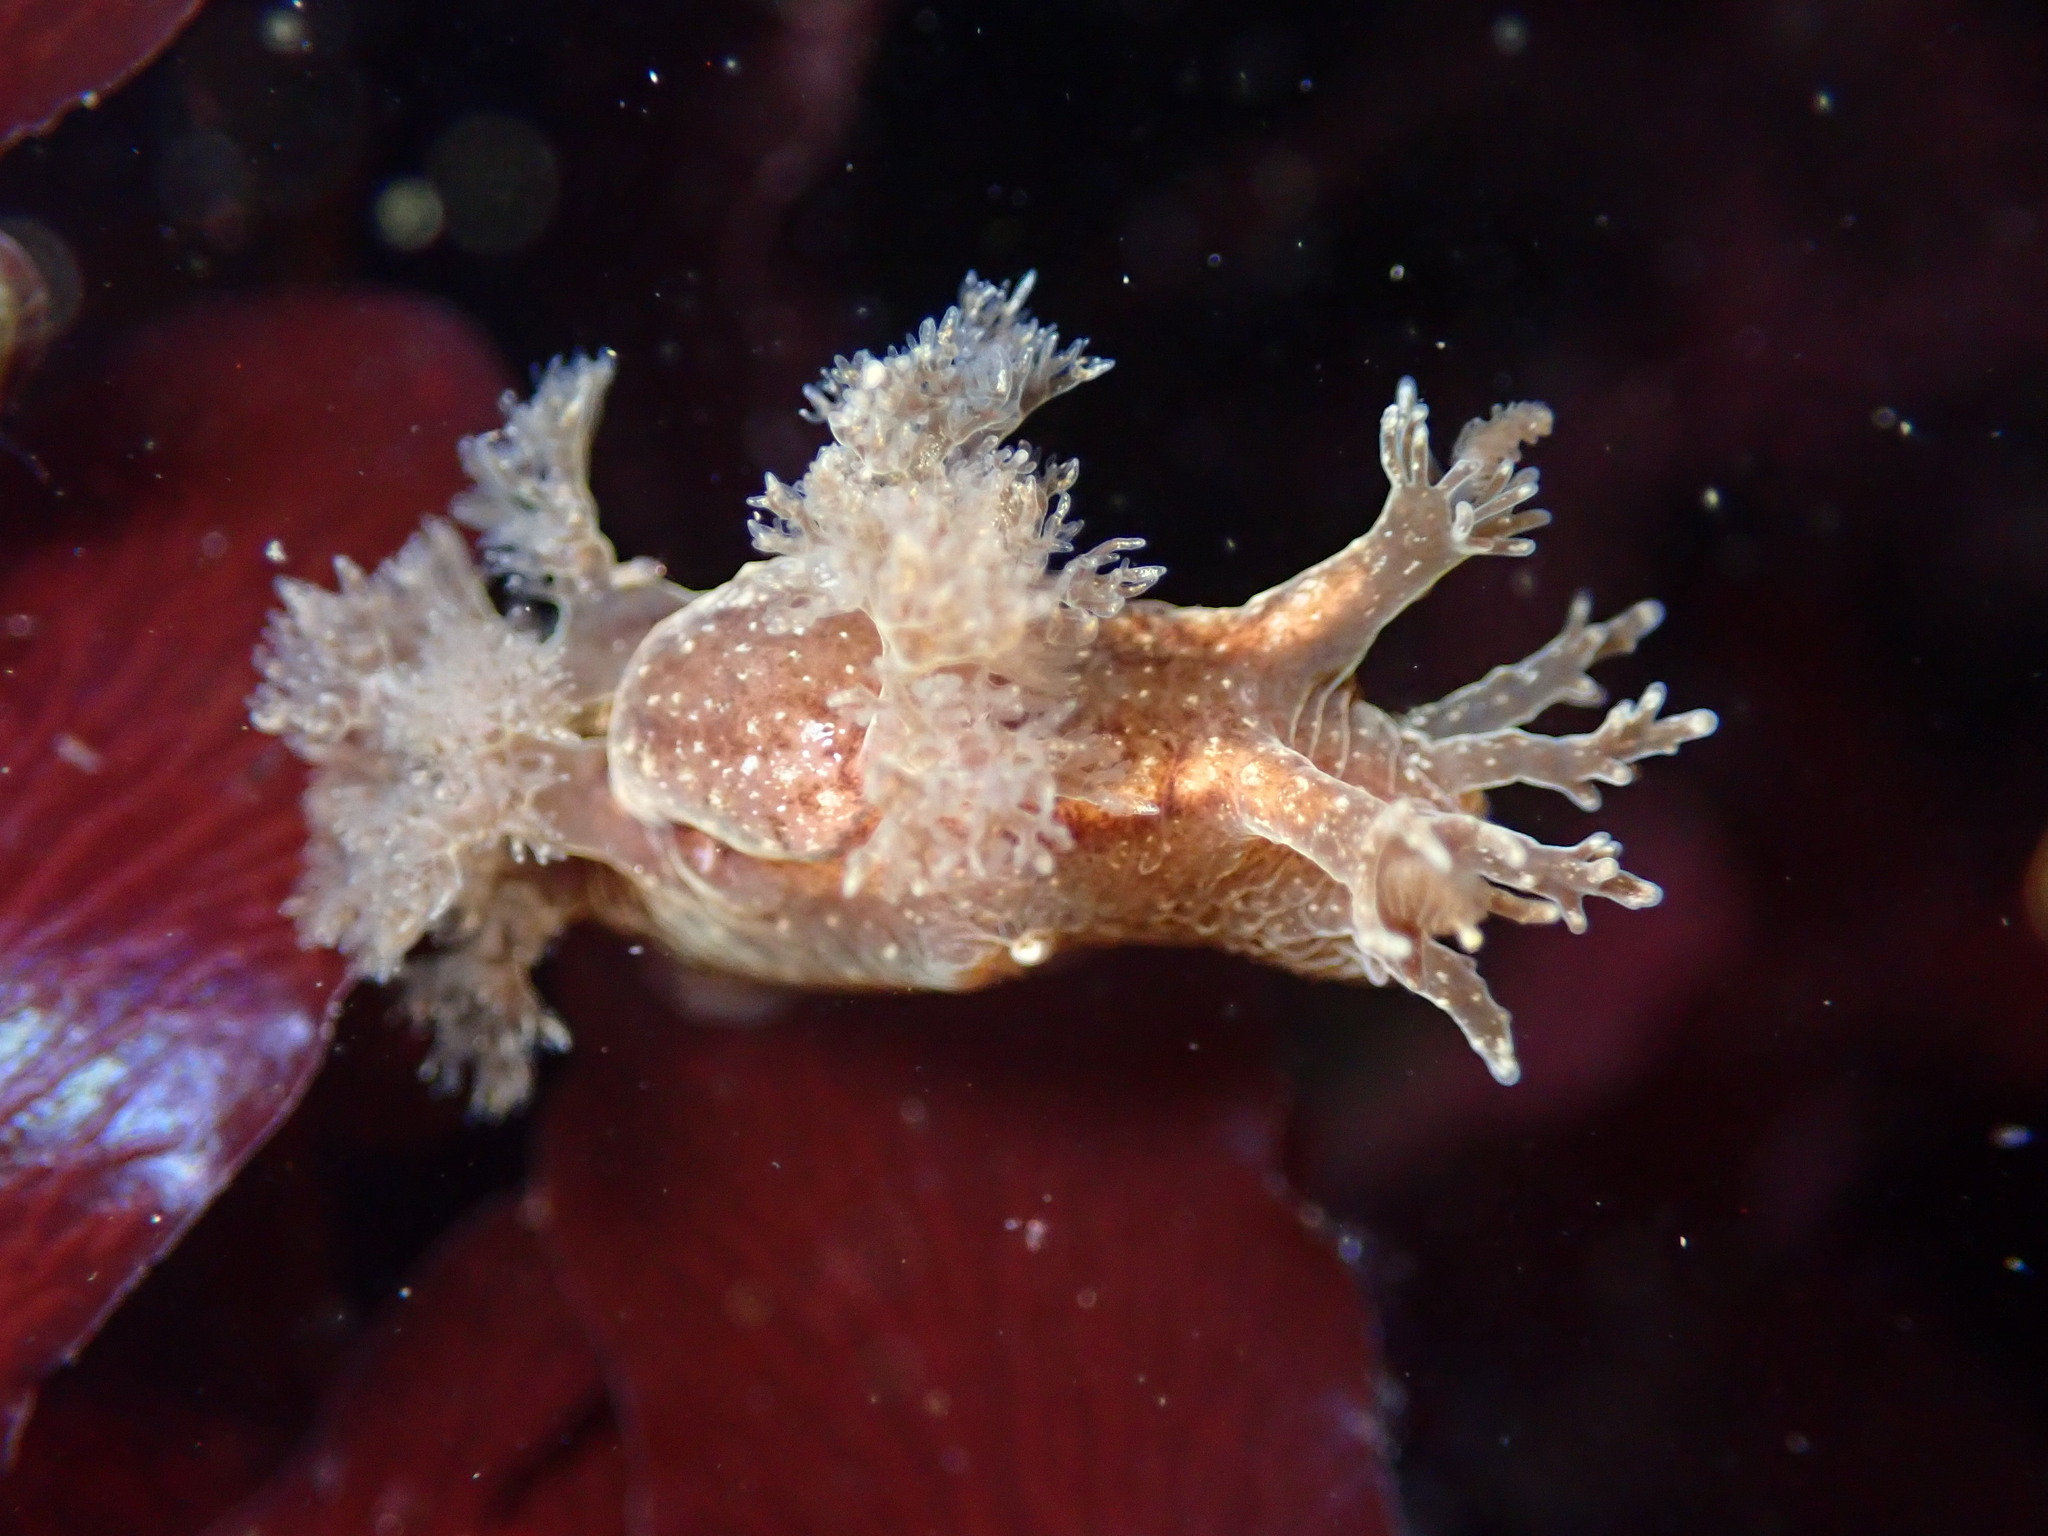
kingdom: Animalia
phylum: Mollusca
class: Gastropoda
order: Nudibranchia
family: Dendronotidae
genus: Dendronotus
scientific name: Dendronotus subramosus
